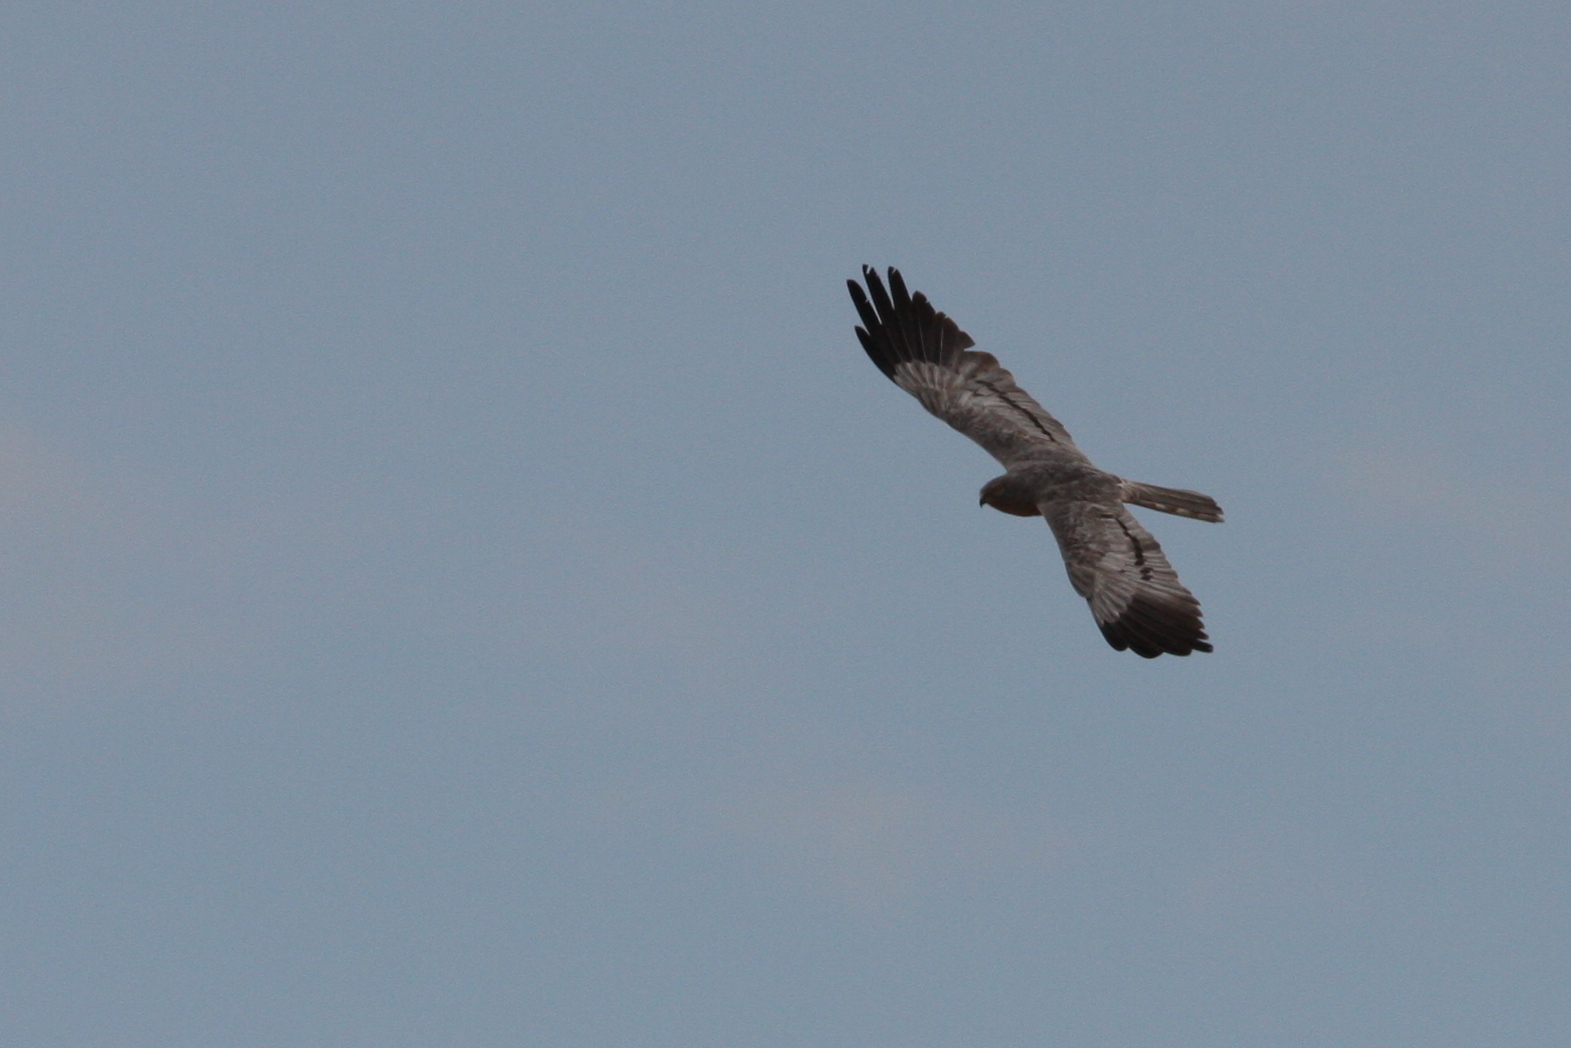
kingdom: Animalia
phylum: Chordata
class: Aves
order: Accipitriformes
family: Accipitridae
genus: Circus
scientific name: Circus pygargus
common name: Montagu's harrier
